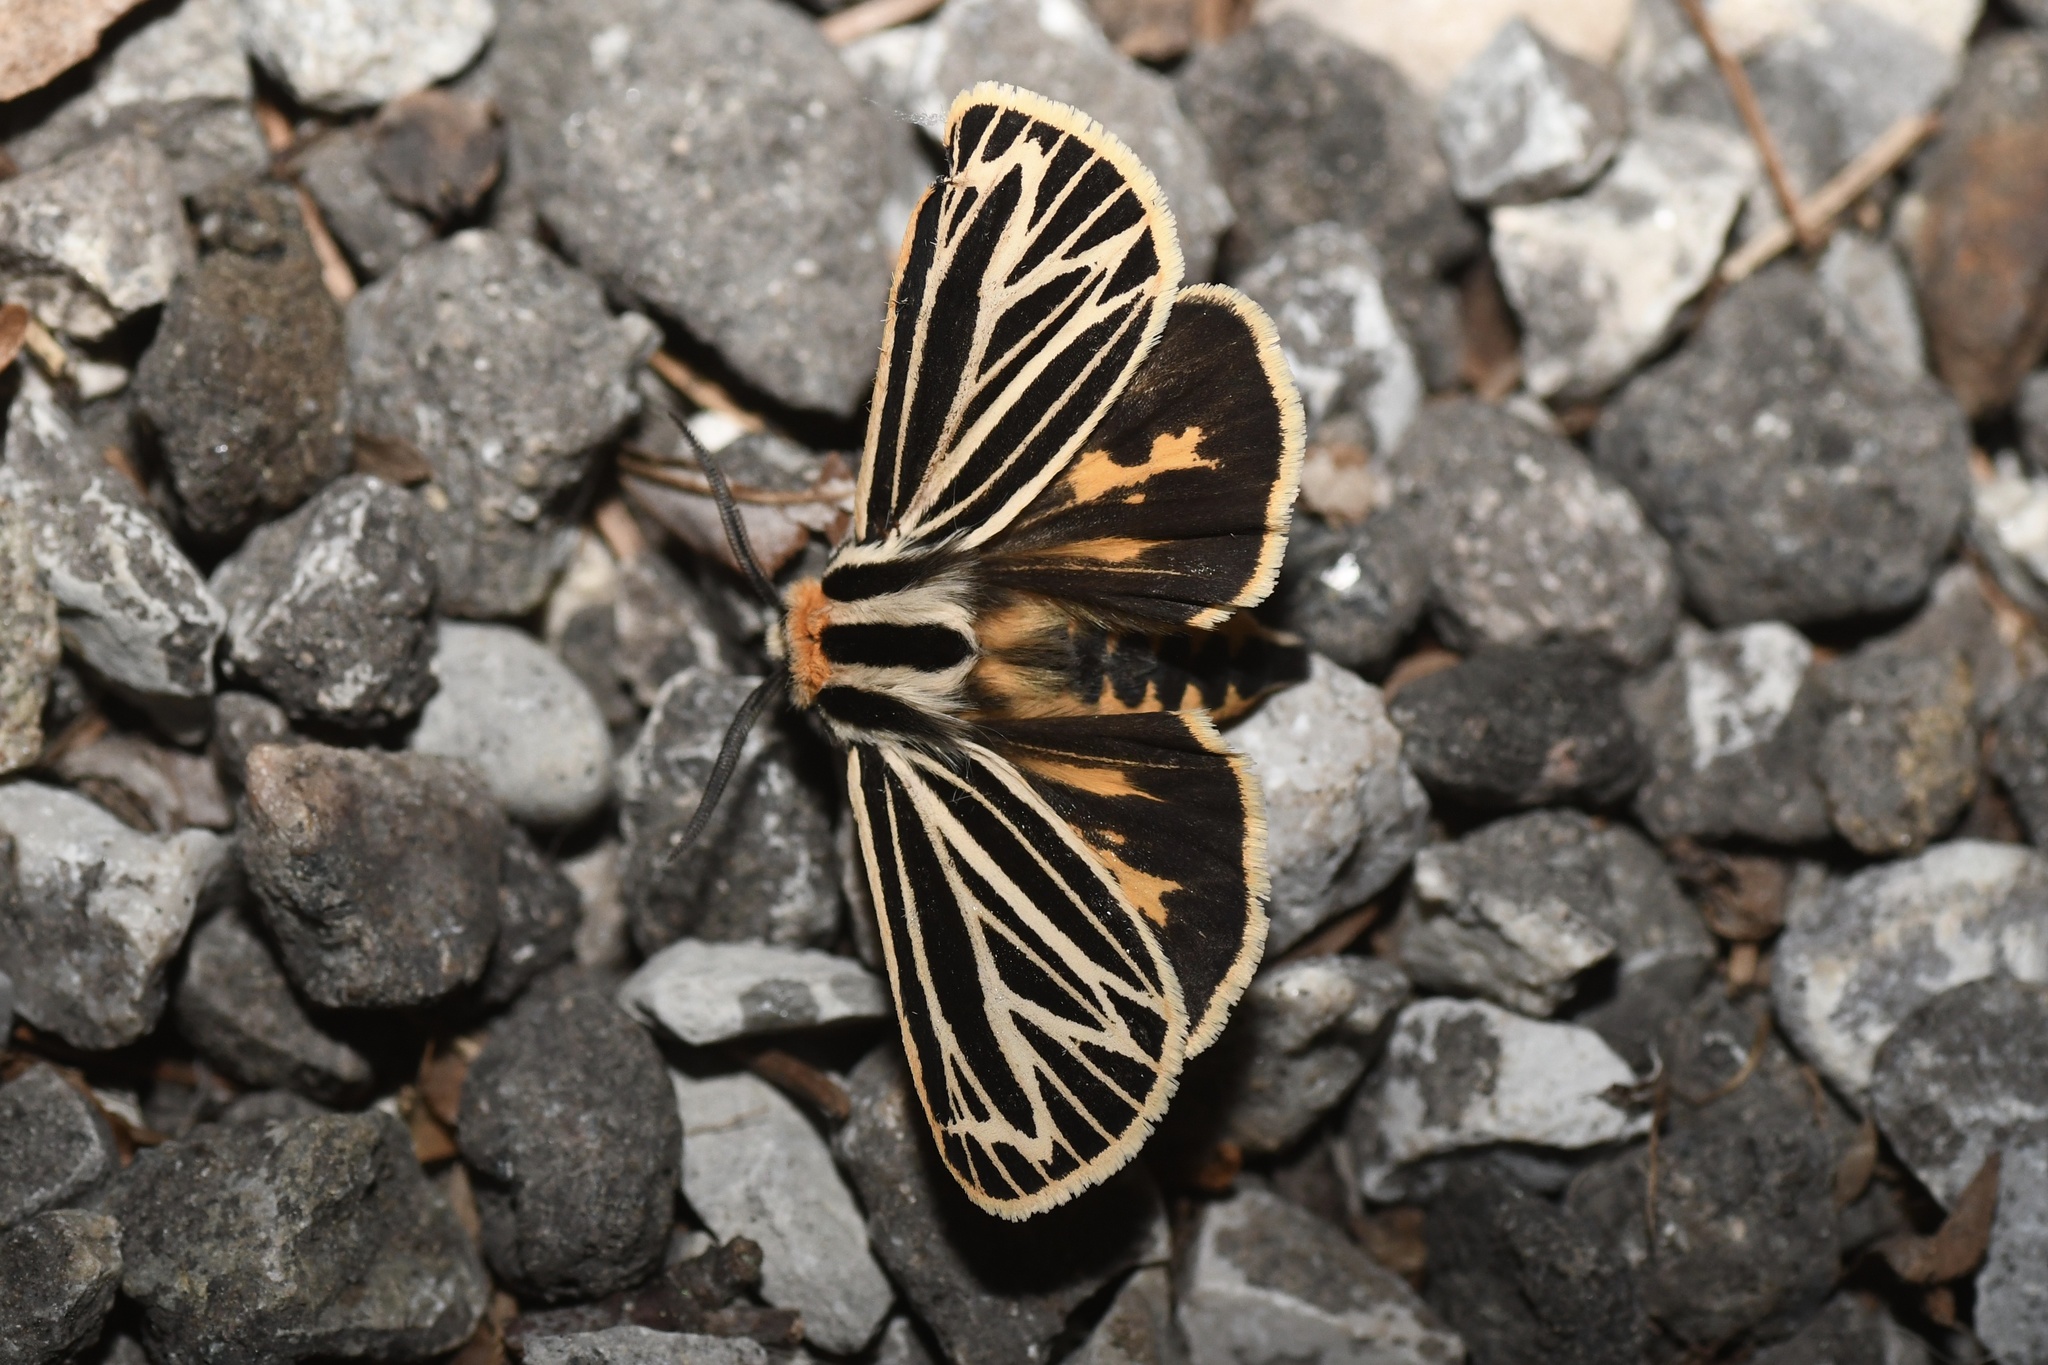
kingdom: Animalia
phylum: Arthropoda
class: Insecta
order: Lepidoptera
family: Erebidae
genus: Grammia
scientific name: Grammia virguncula
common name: Little tiger moth
